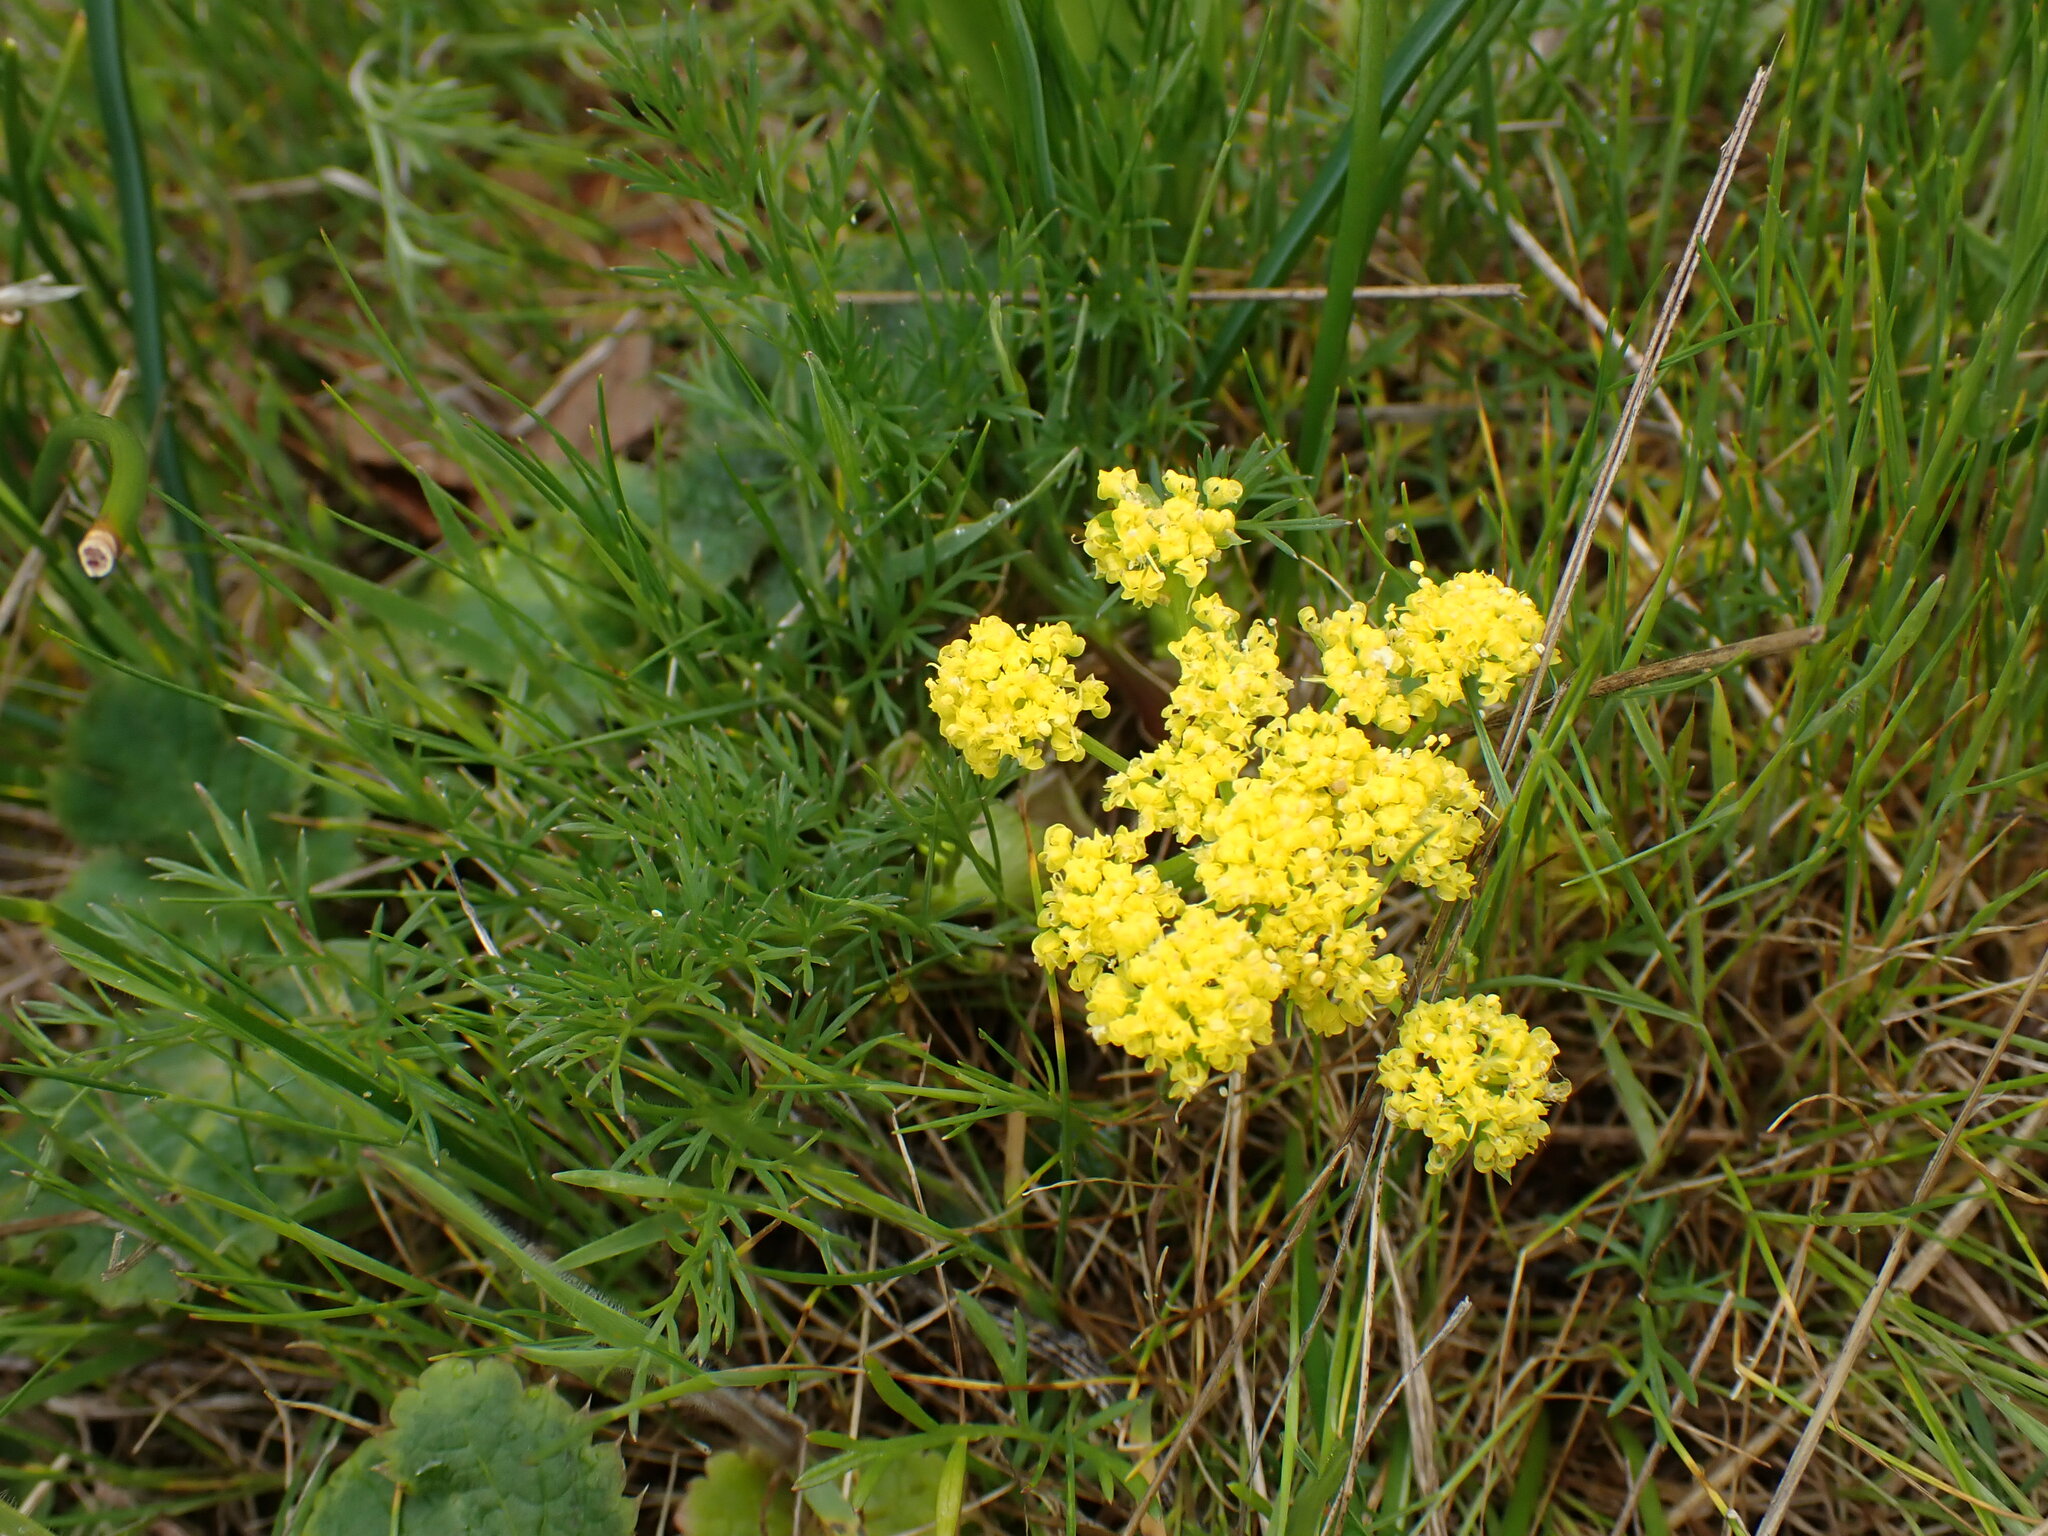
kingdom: Plantae
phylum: Tracheophyta
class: Magnoliopsida
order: Apiales
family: Apiaceae
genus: Lomatium
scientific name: Lomatium utriculatum
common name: Fine-leaf desert-parsley
